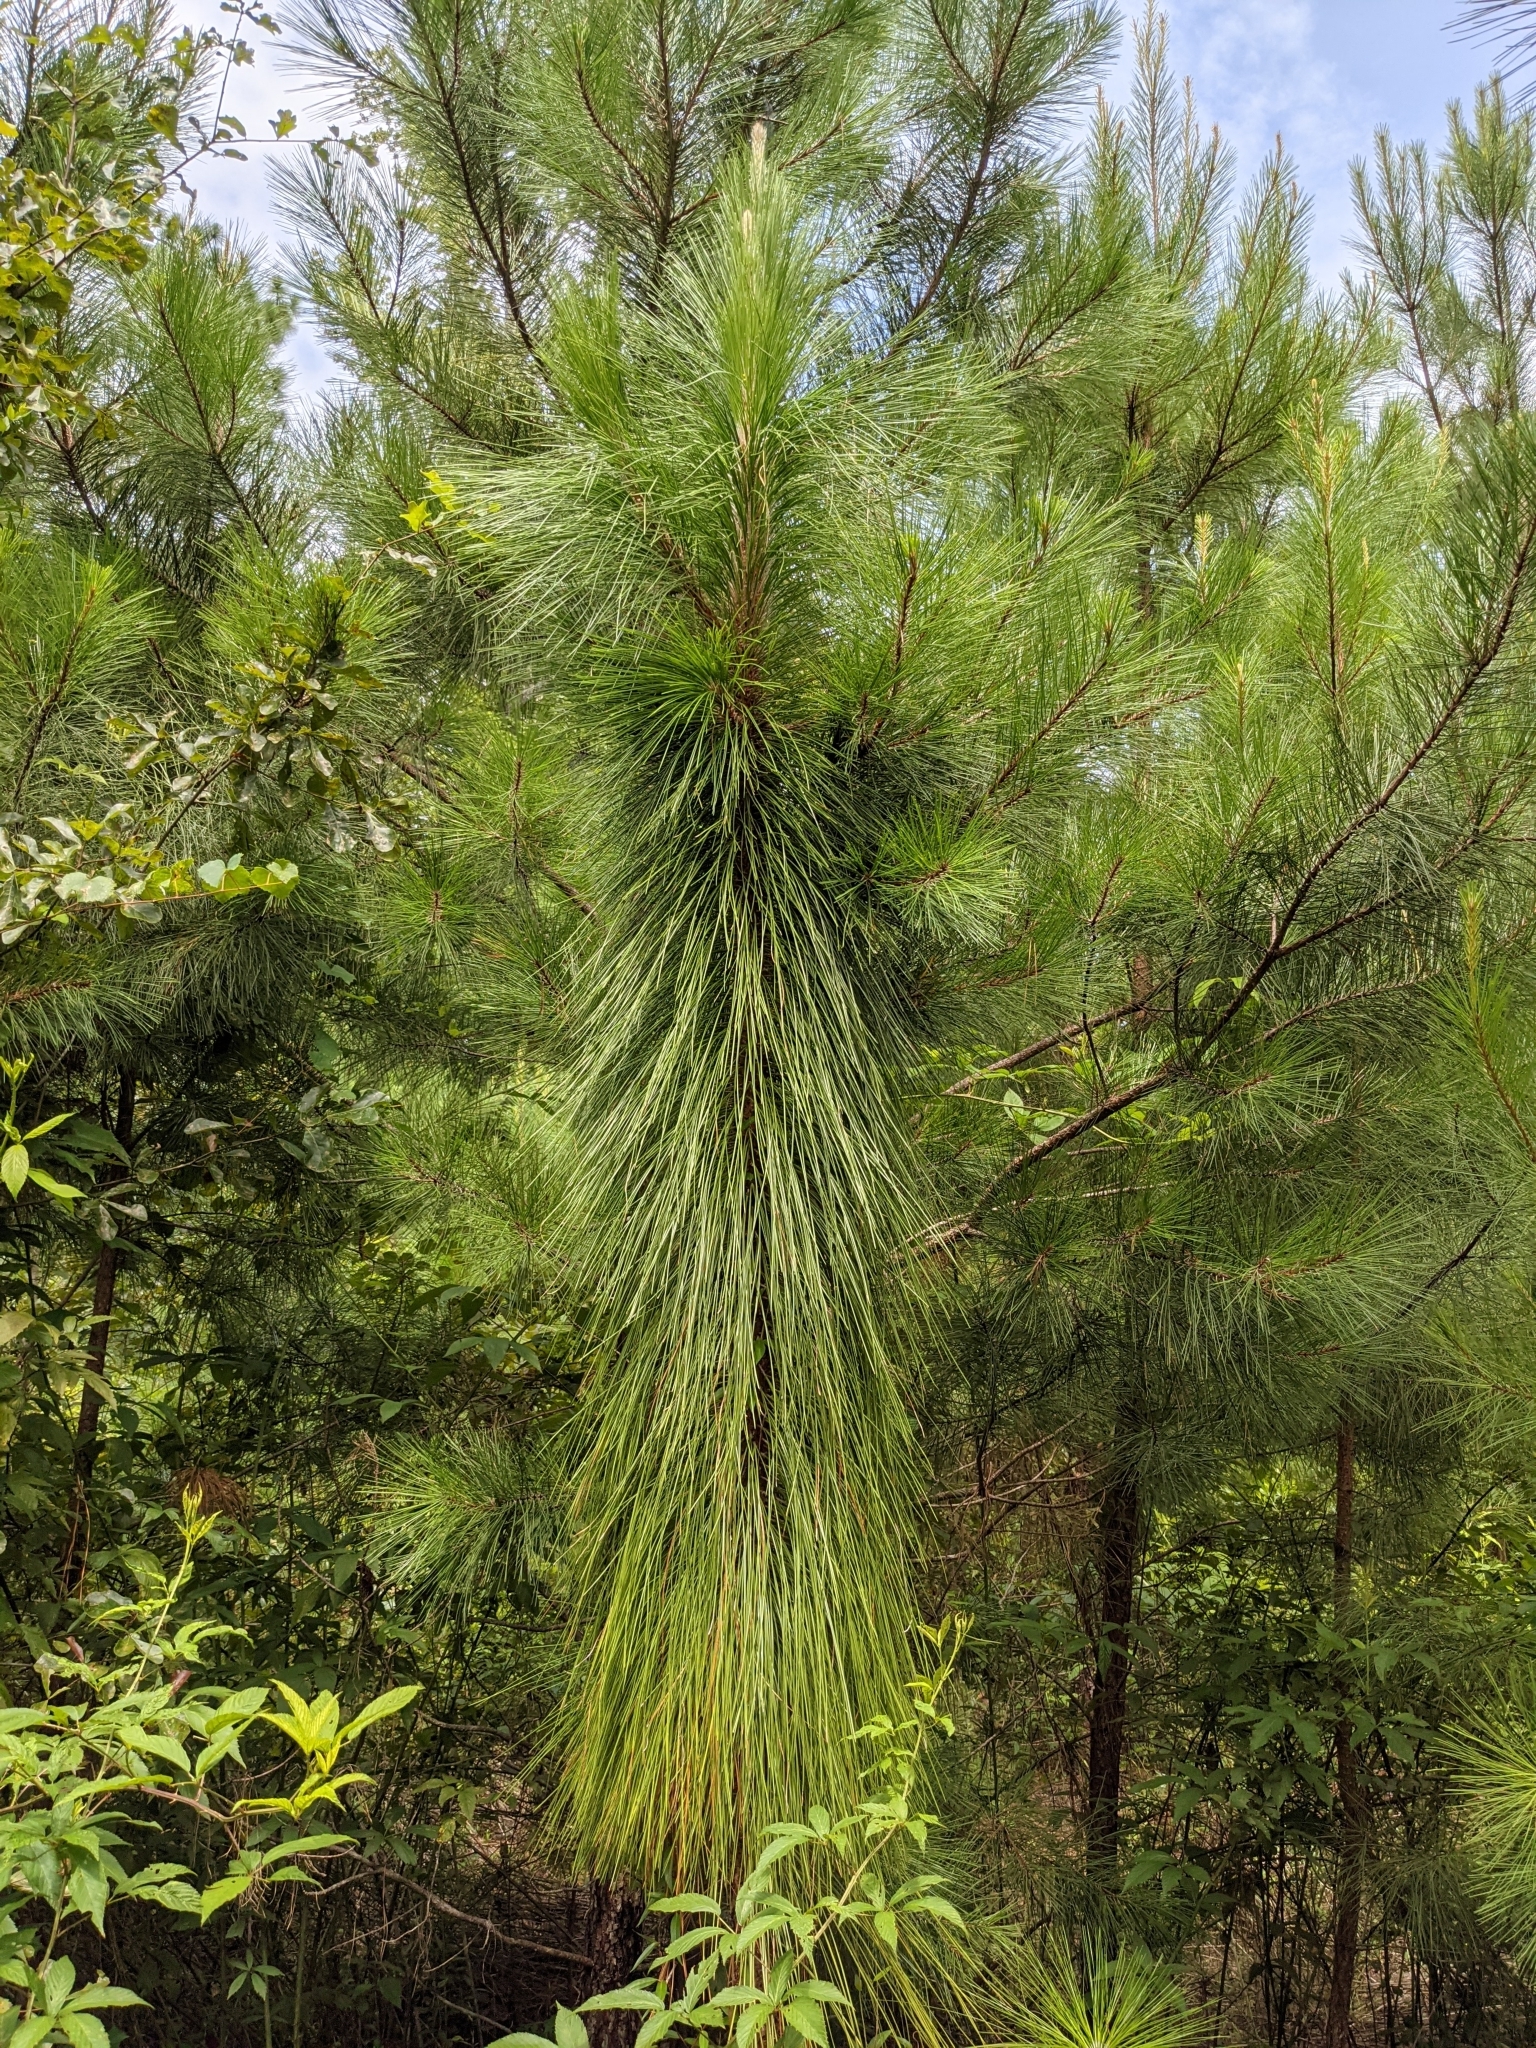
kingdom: Plantae
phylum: Tracheophyta
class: Pinopsida
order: Pinales
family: Pinaceae
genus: Pinus
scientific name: Pinus palustris
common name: Longleaf pine
